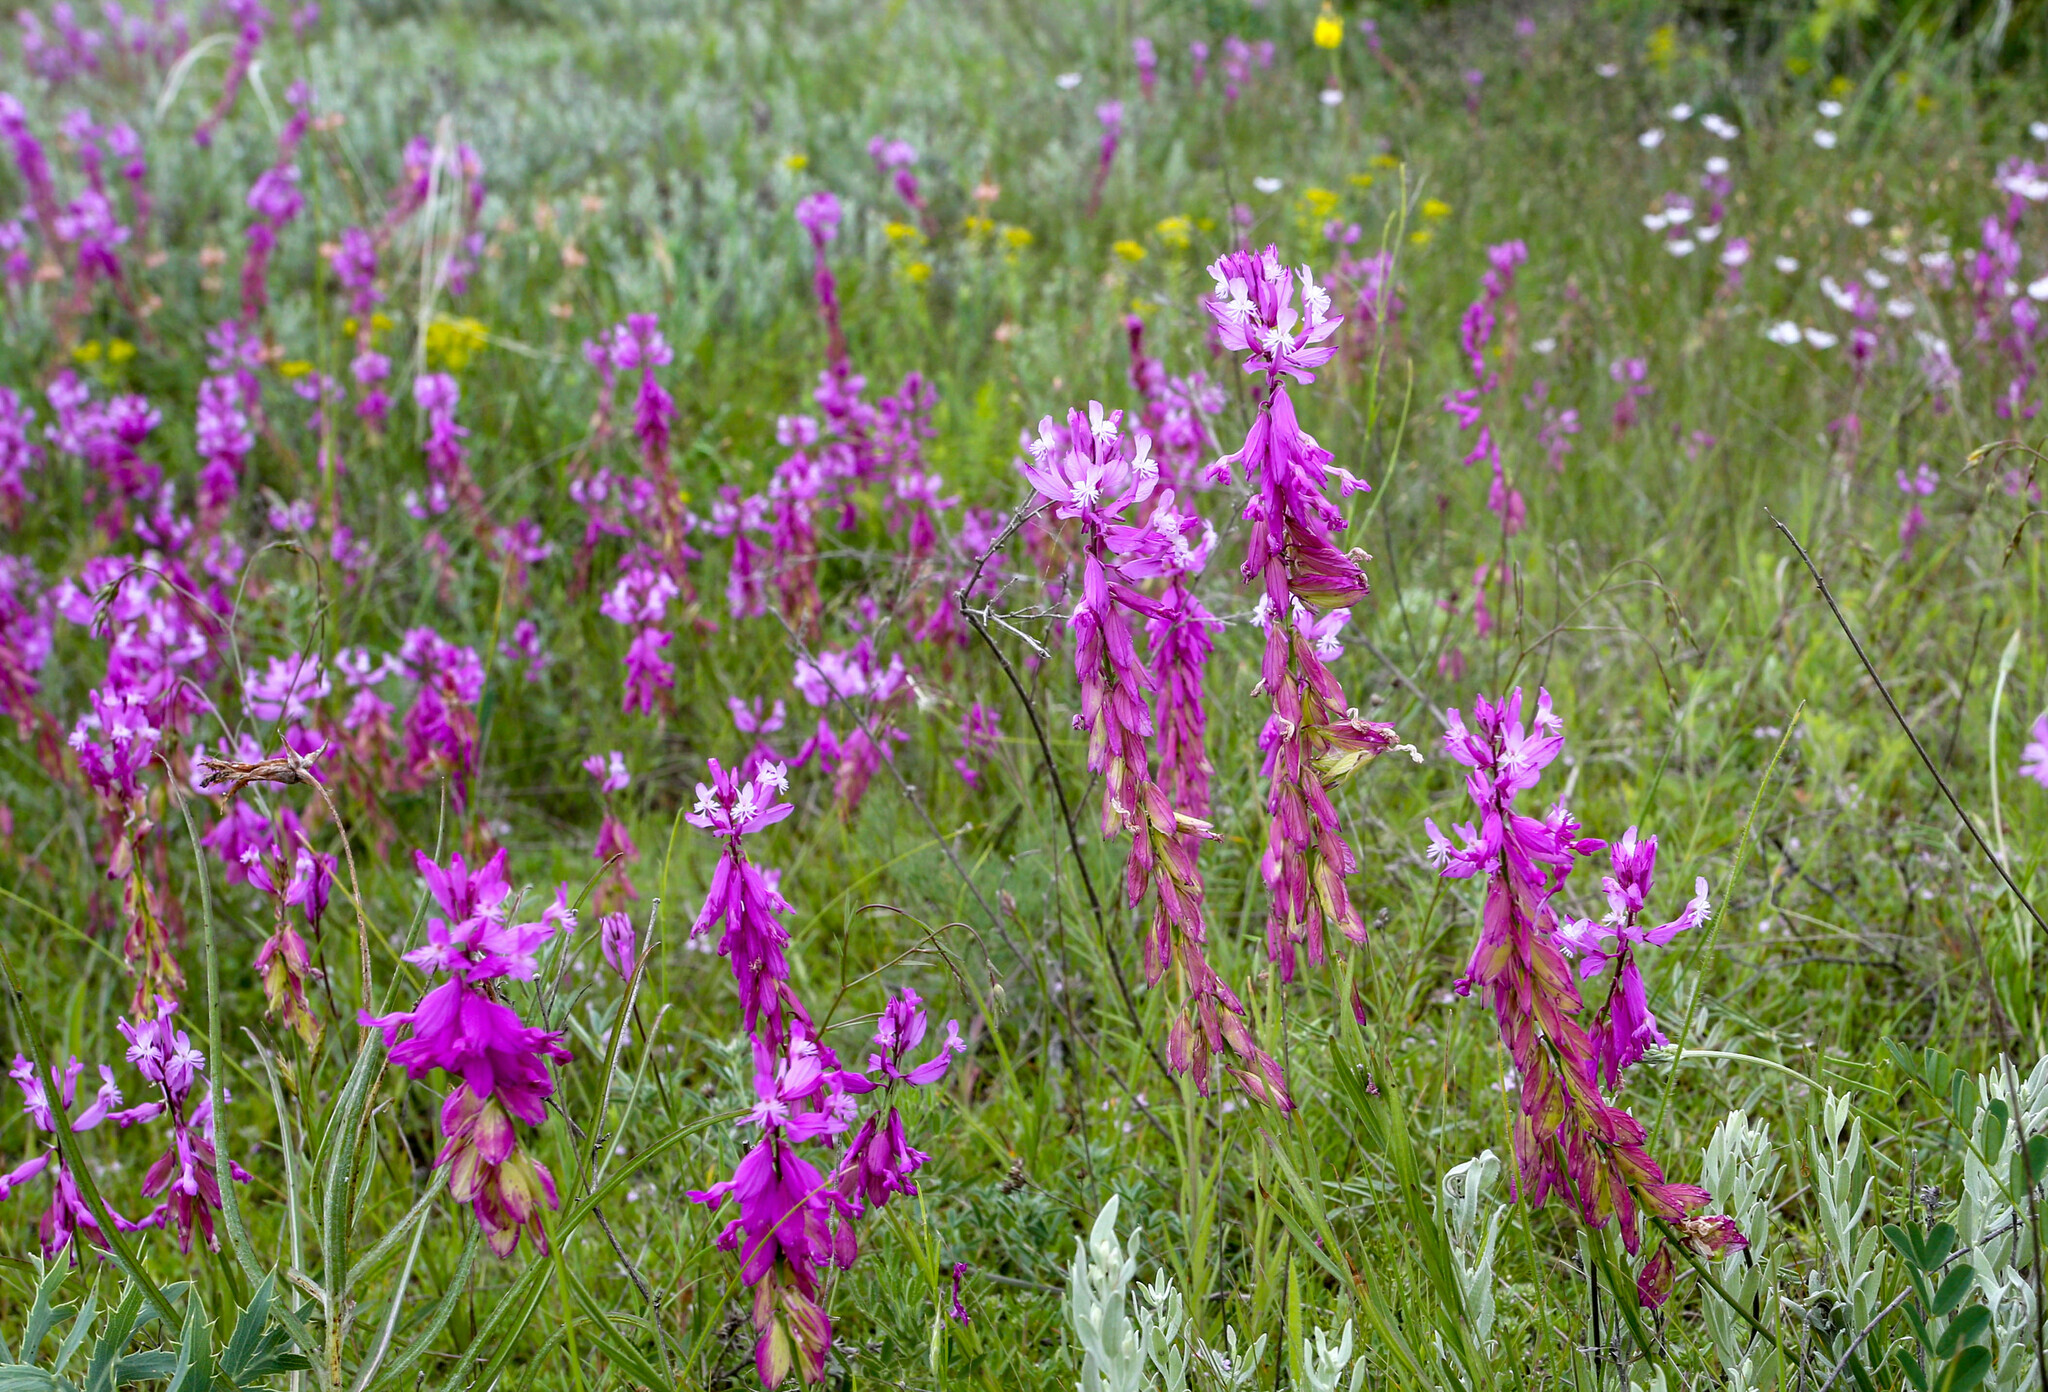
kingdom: Plantae
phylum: Tracheophyta
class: Magnoliopsida
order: Fabales
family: Polygalaceae
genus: Polygala
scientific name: Polygala major
